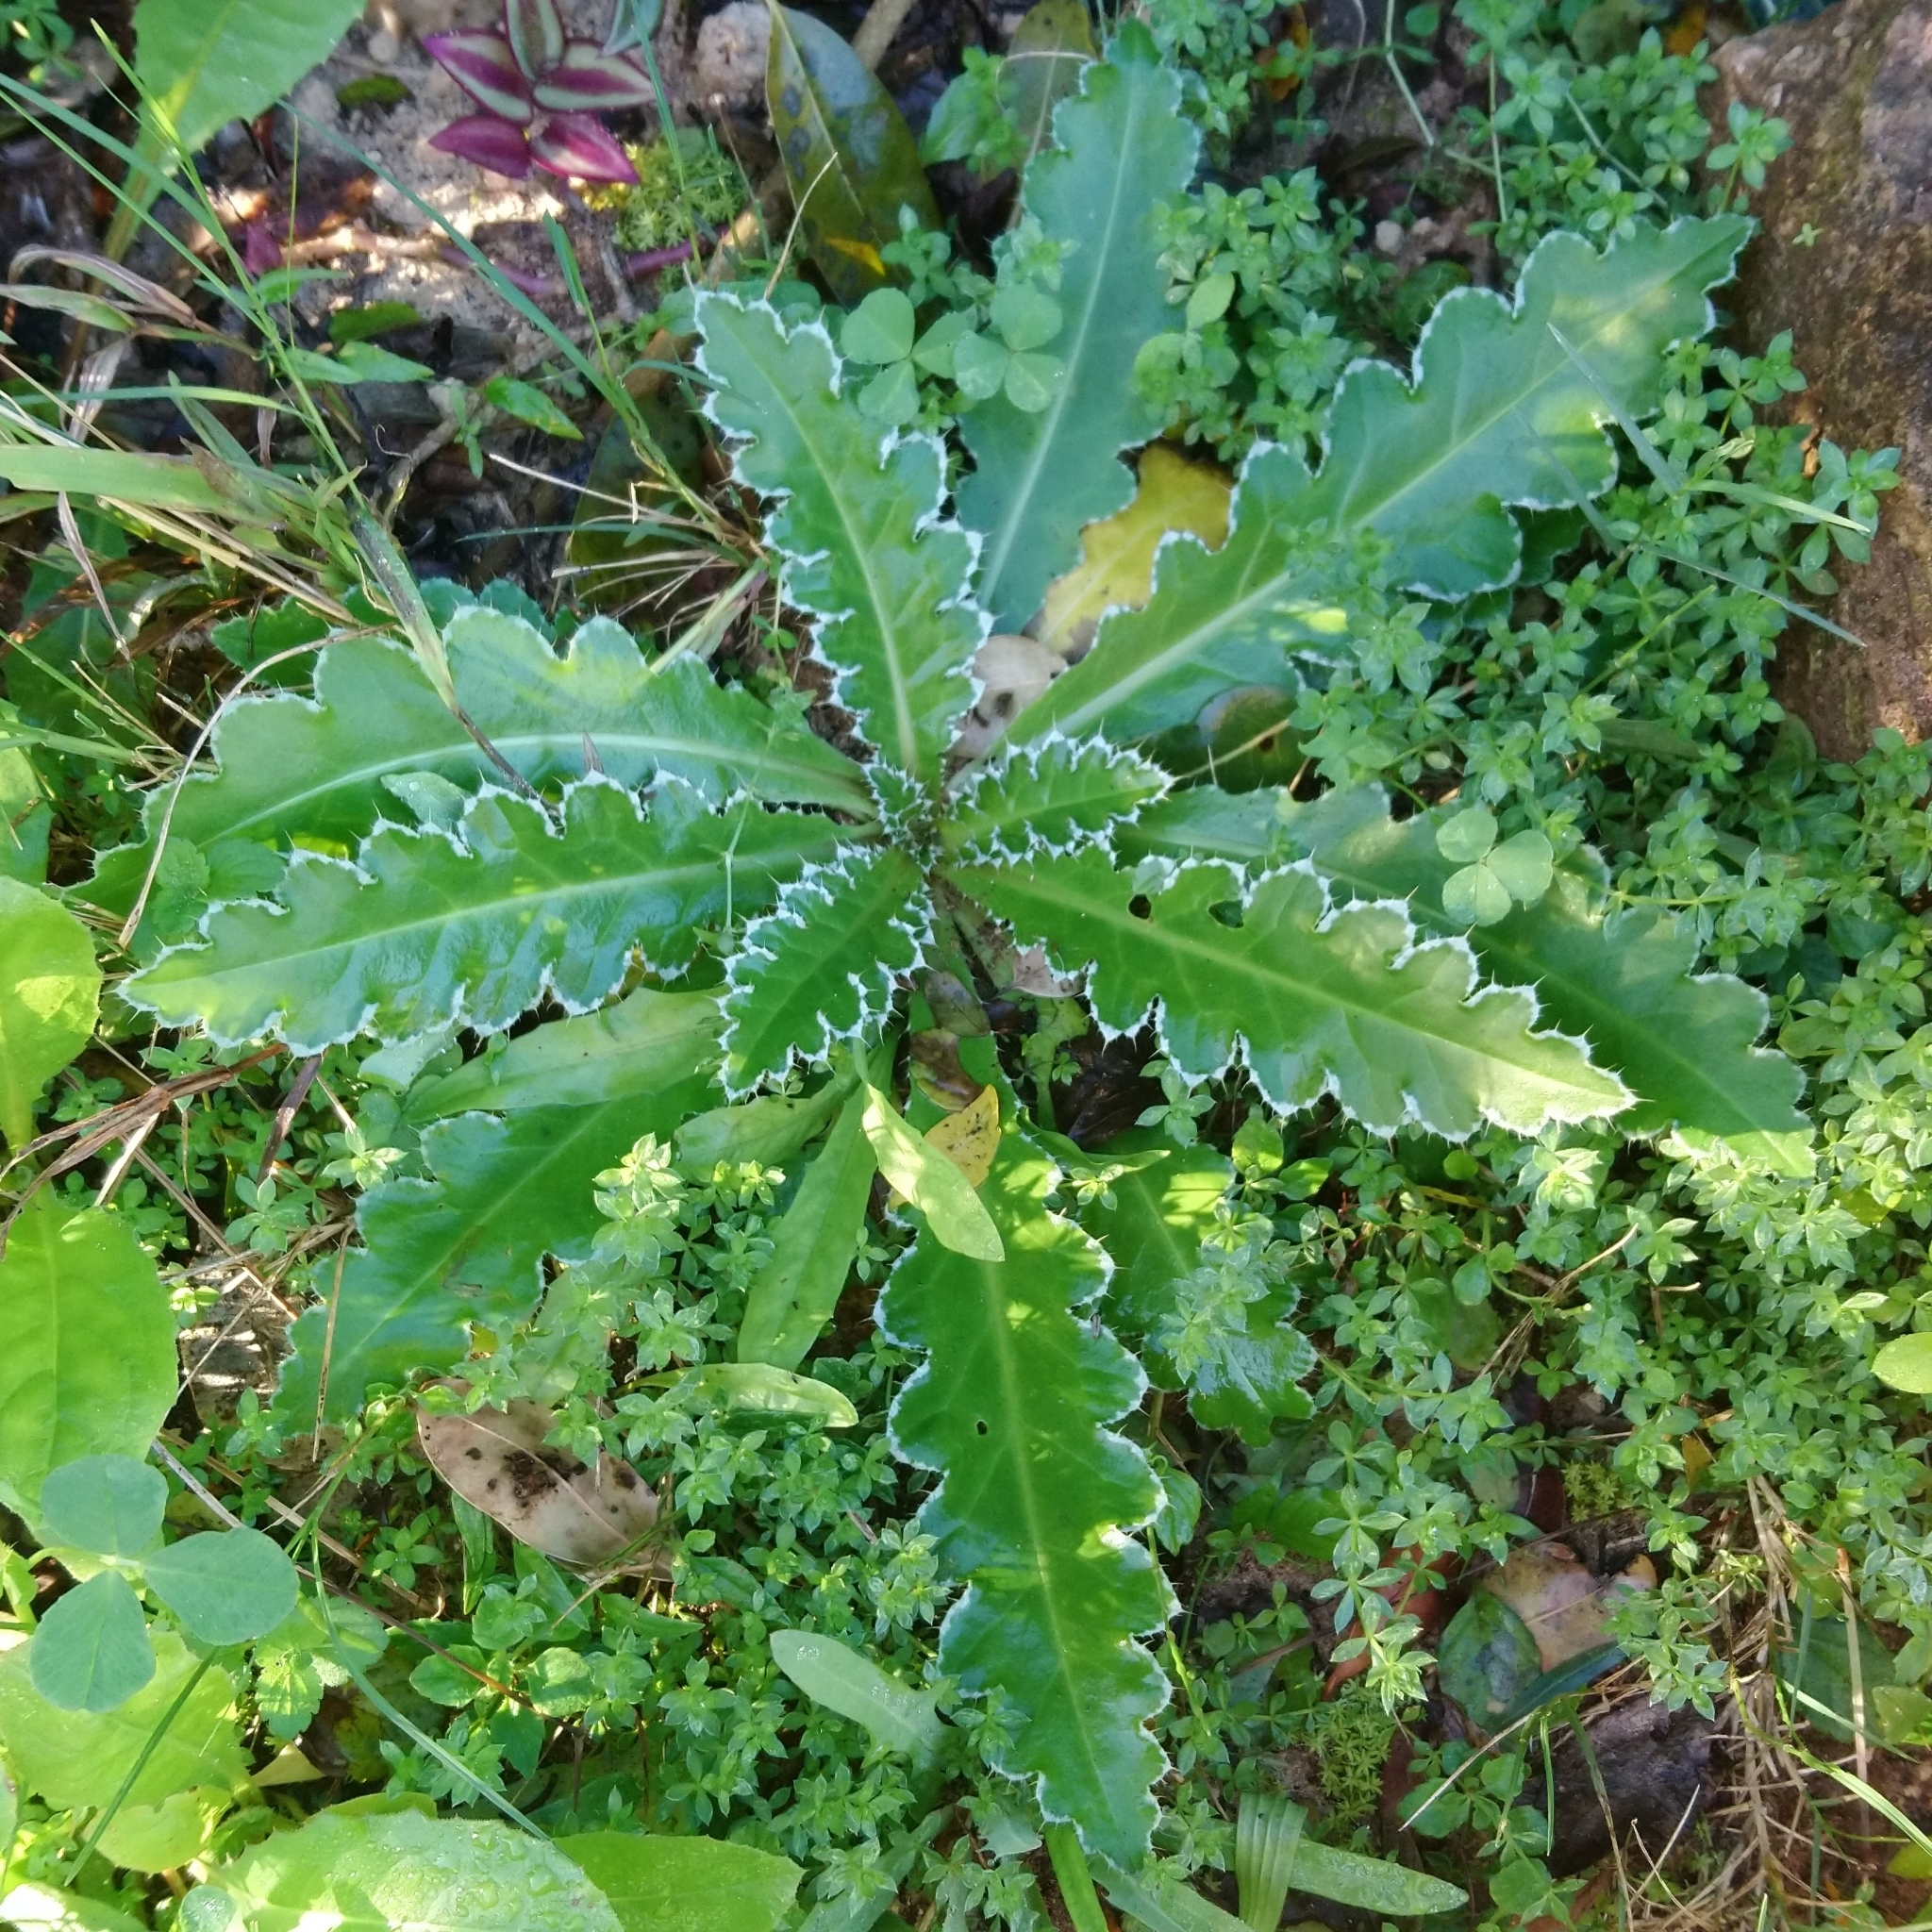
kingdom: Plantae
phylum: Tracheophyta
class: Magnoliopsida
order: Asterales
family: Asteraceae
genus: Carduus
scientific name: Carduus nutans
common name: Musk thistle
